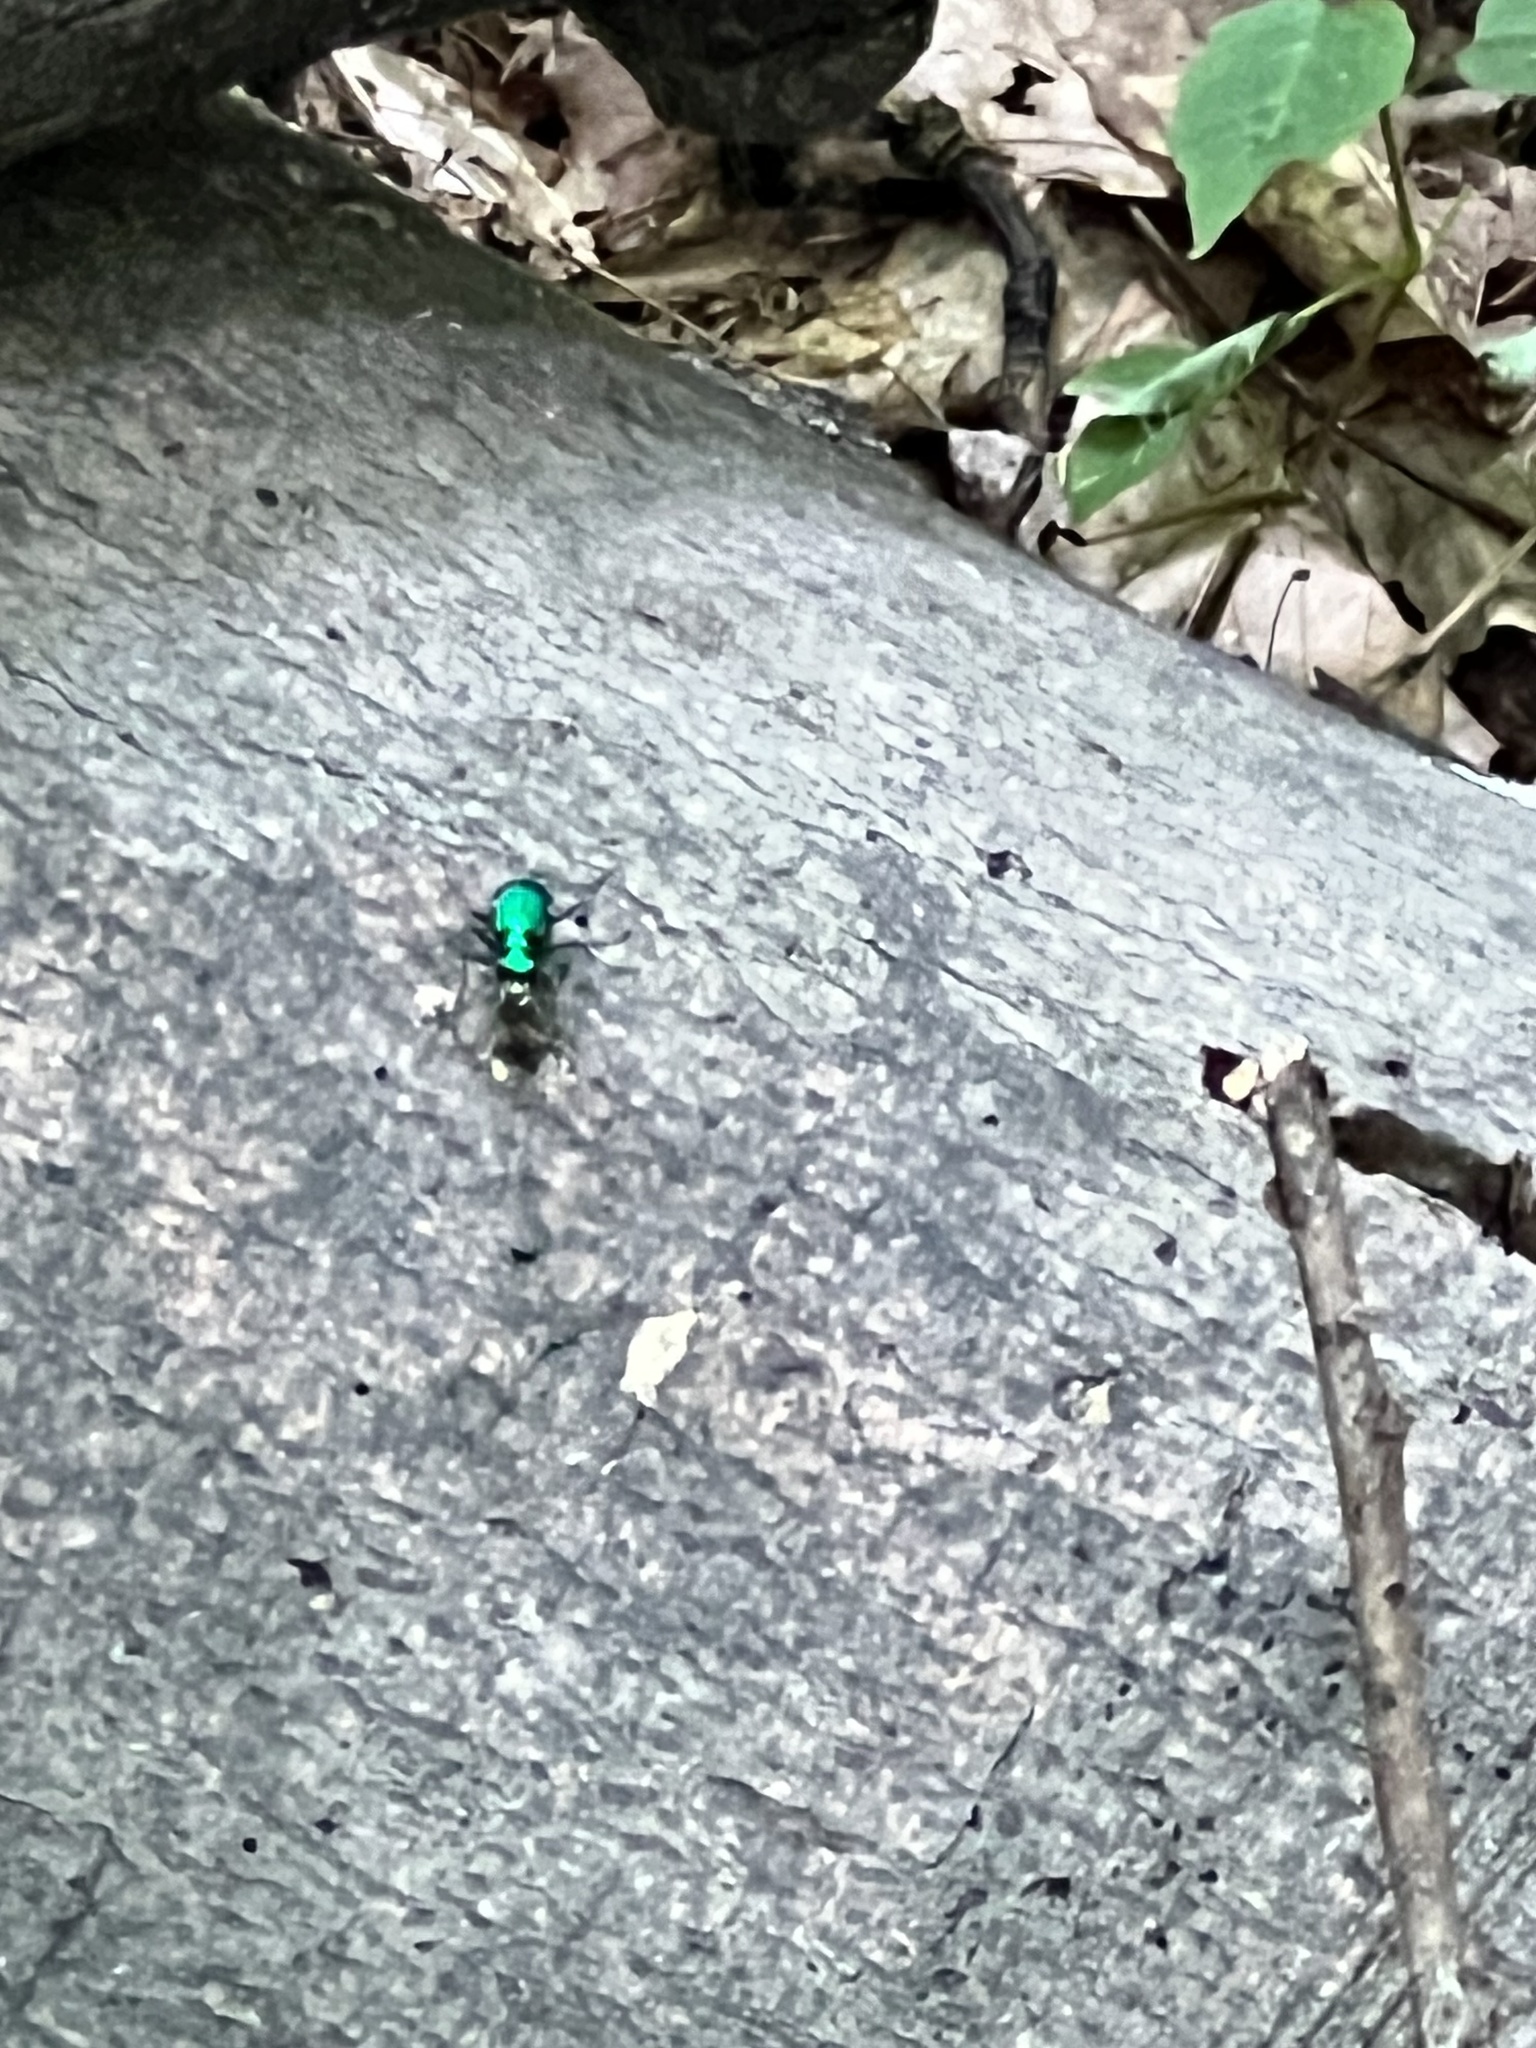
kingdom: Animalia
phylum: Arthropoda
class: Insecta
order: Coleoptera
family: Carabidae
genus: Cicindela
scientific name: Cicindela sexguttata
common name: Six-spotted tiger beetle
